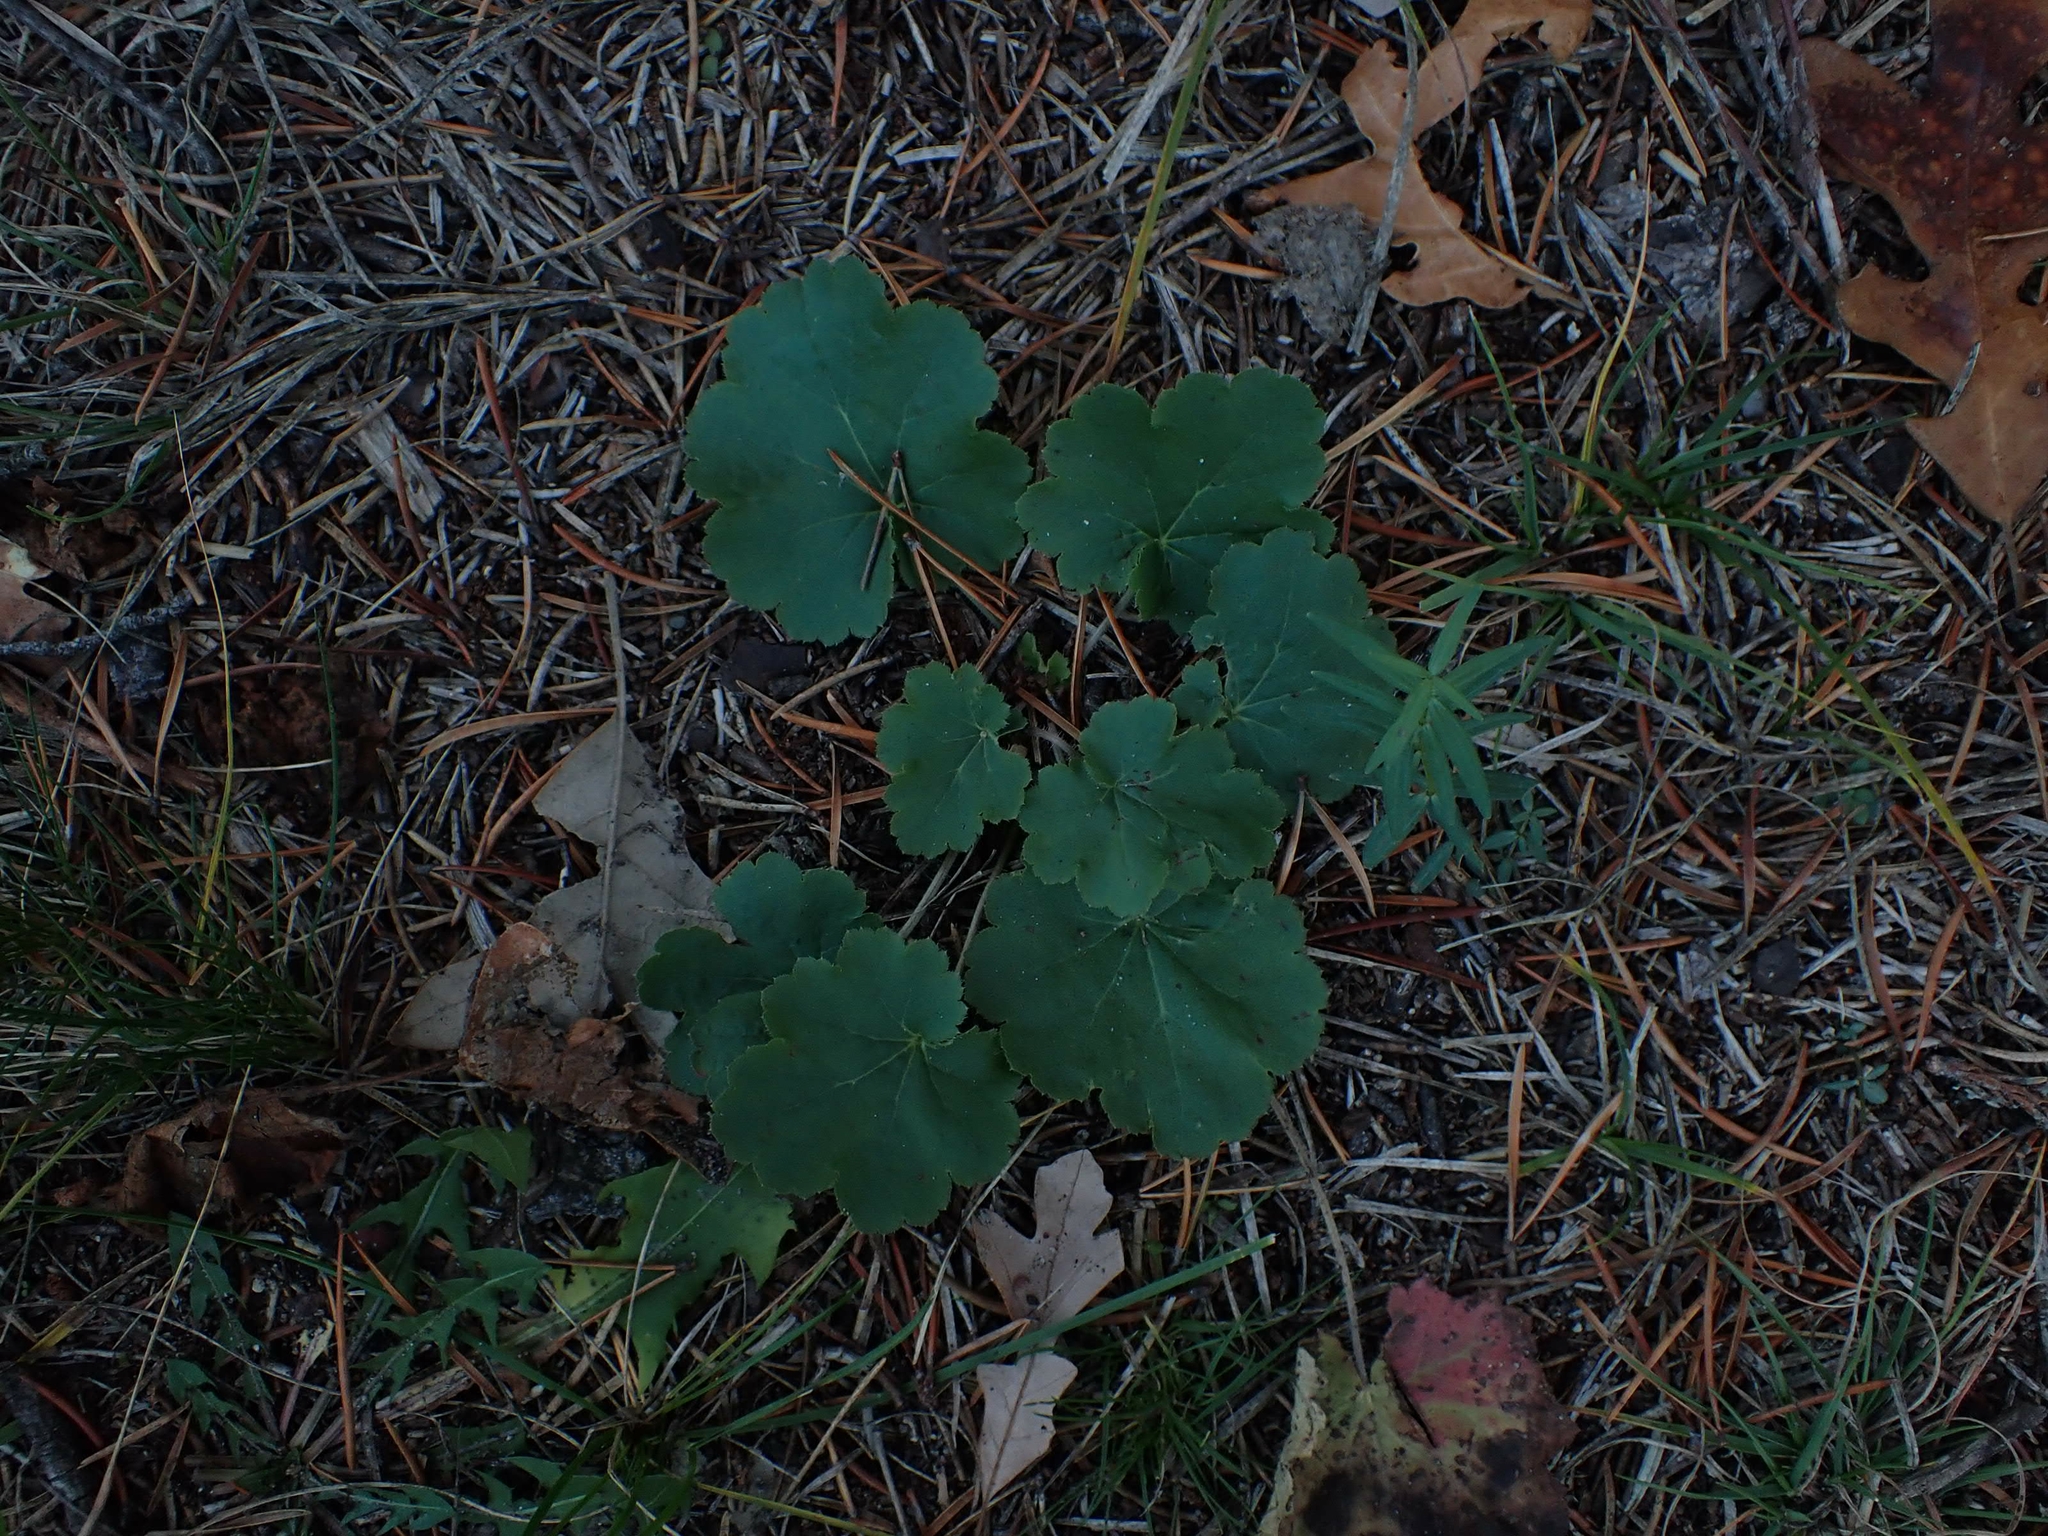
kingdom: Plantae
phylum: Tracheophyta
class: Magnoliopsida
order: Saxifragales
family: Saxifragaceae
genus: Heuchera
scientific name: Heuchera richardsonii
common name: Richardson's alumroot
